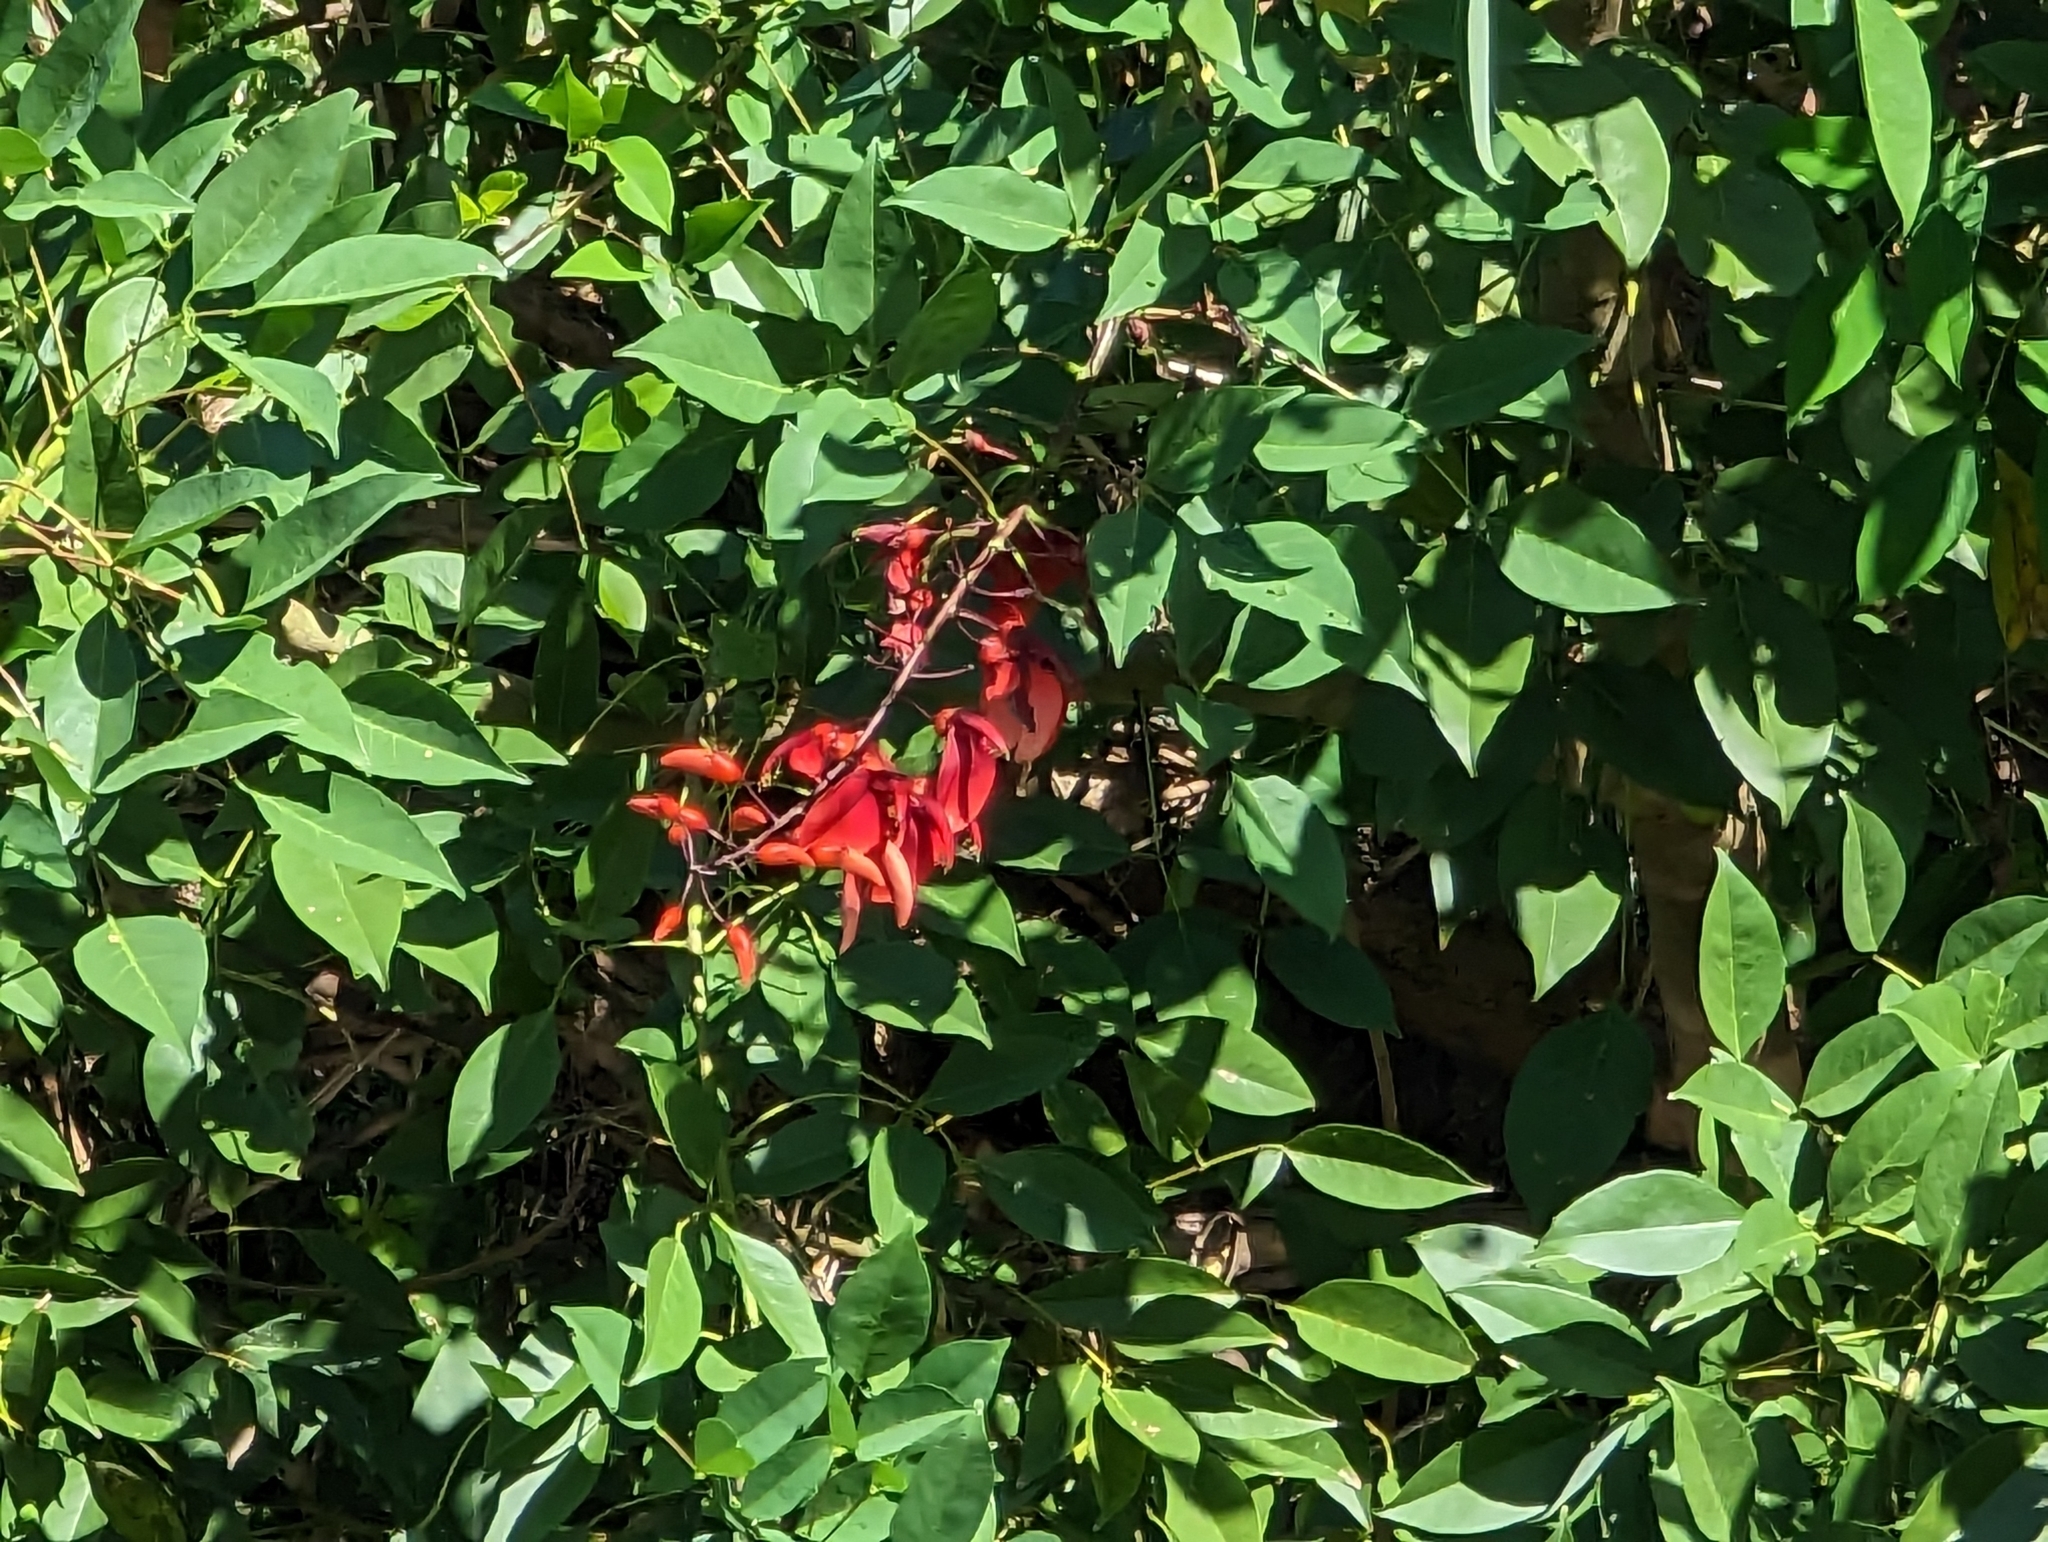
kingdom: Plantae
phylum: Tracheophyta
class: Magnoliopsida
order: Fabales
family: Fabaceae
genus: Erythrina
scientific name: Erythrina crista-galli
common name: Cockspur coral tree
